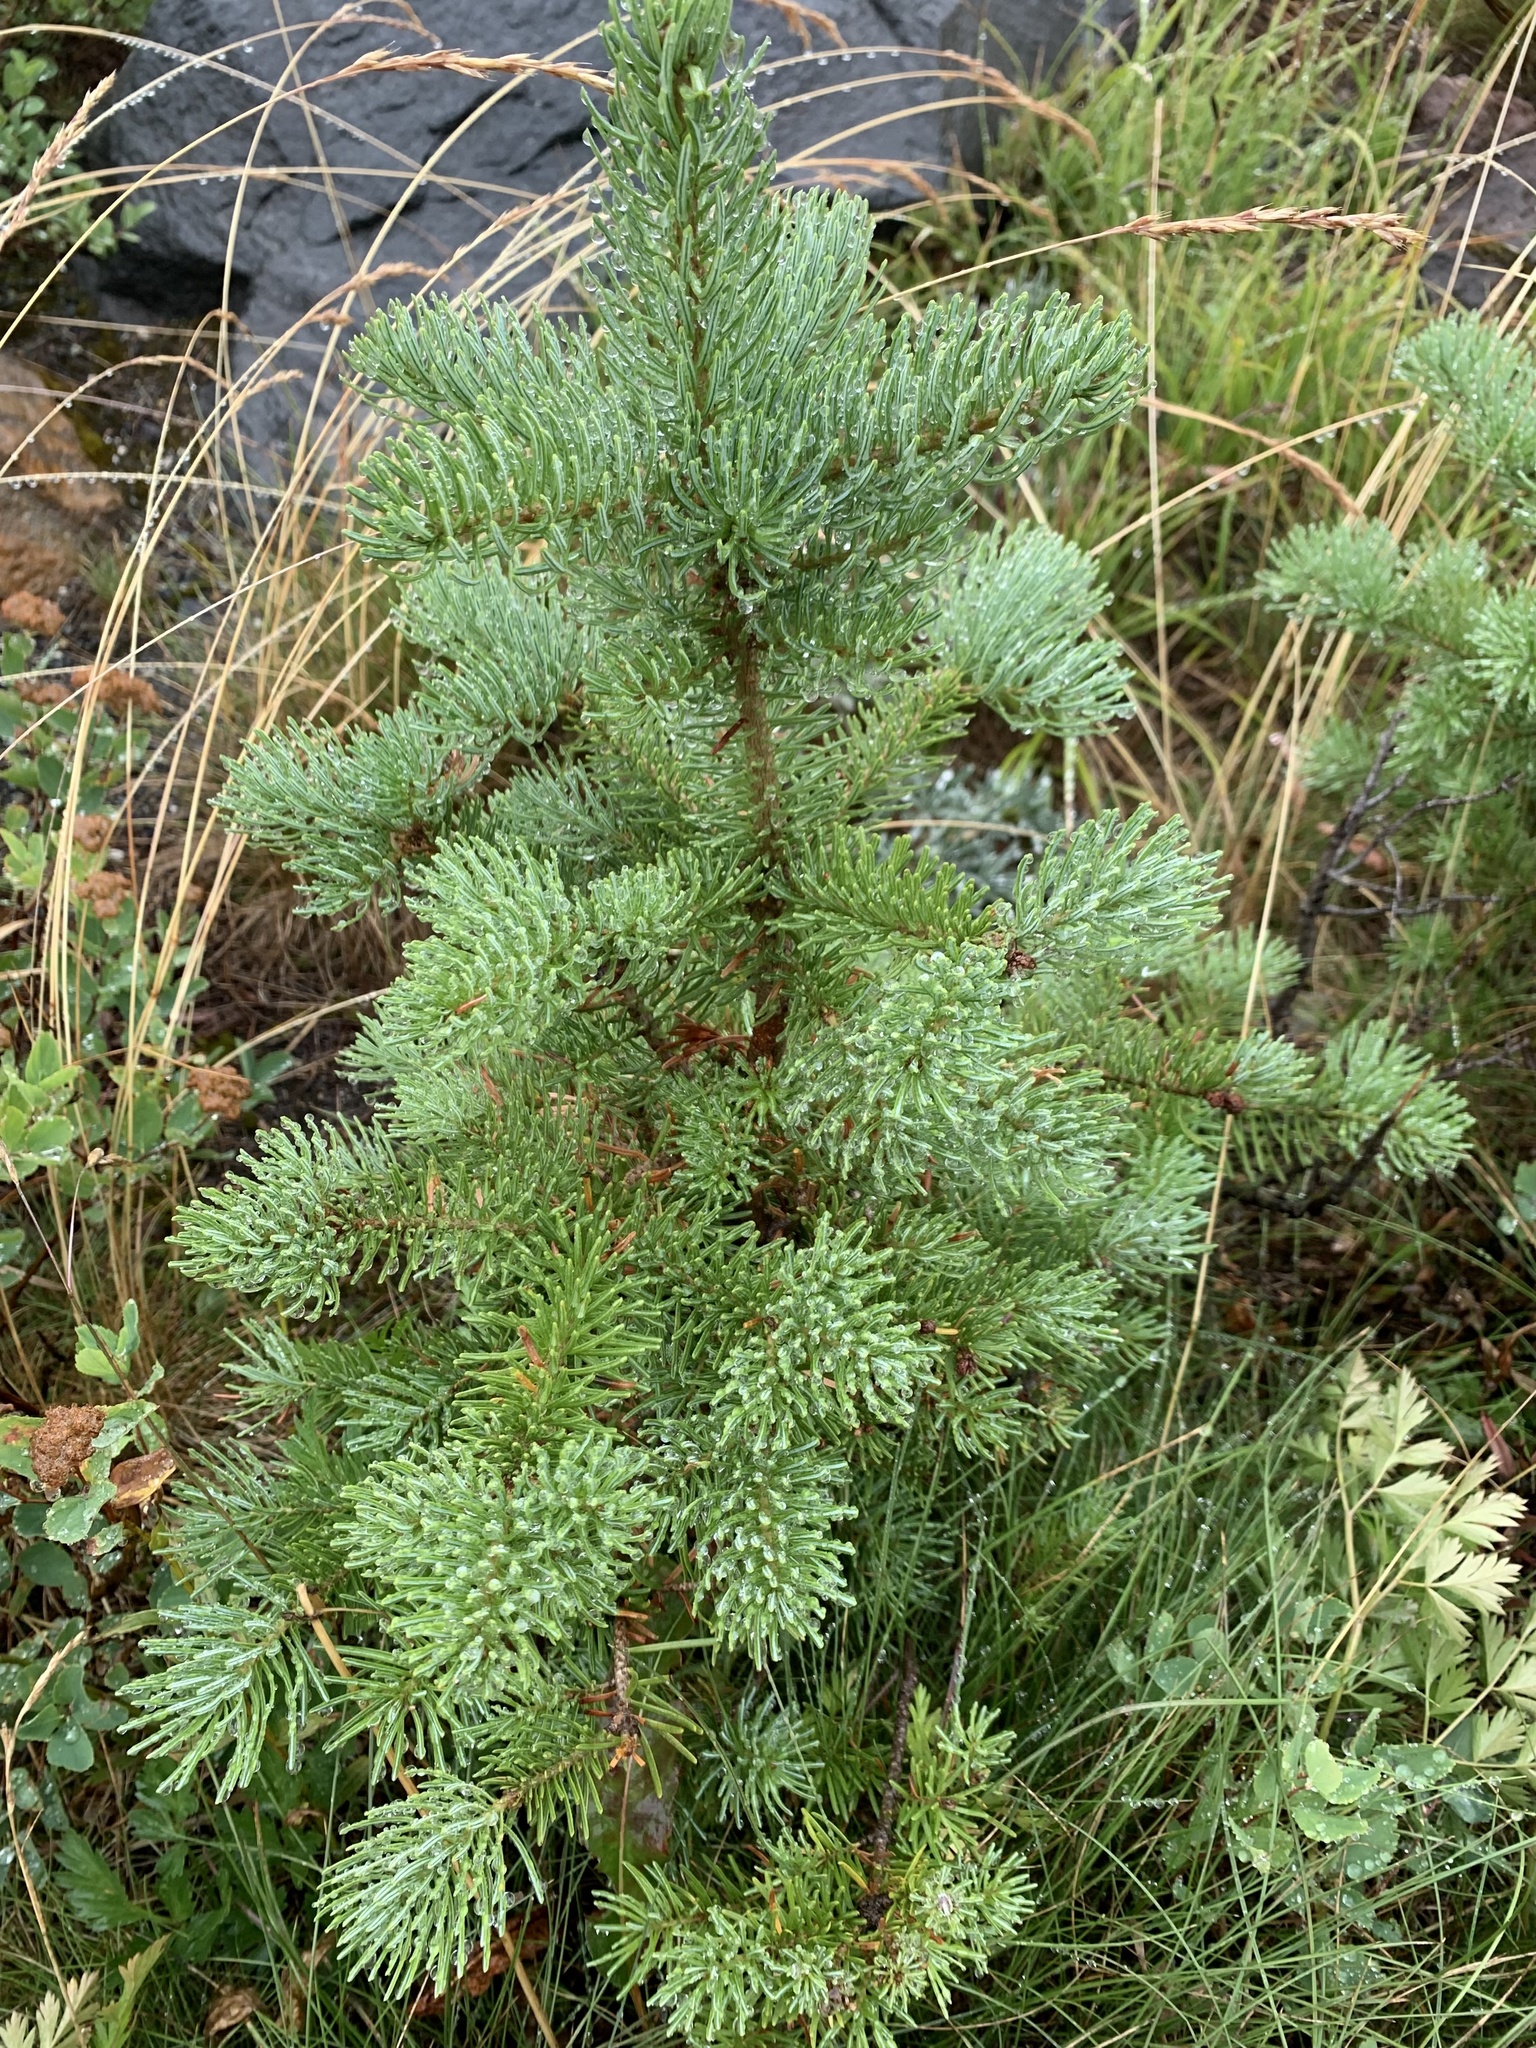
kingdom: Plantae
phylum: Tracheophyta
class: Pinopsida
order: Pinales
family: Pinaceae
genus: Abies
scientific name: Abies lasiocarpa
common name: Subalpine fir
